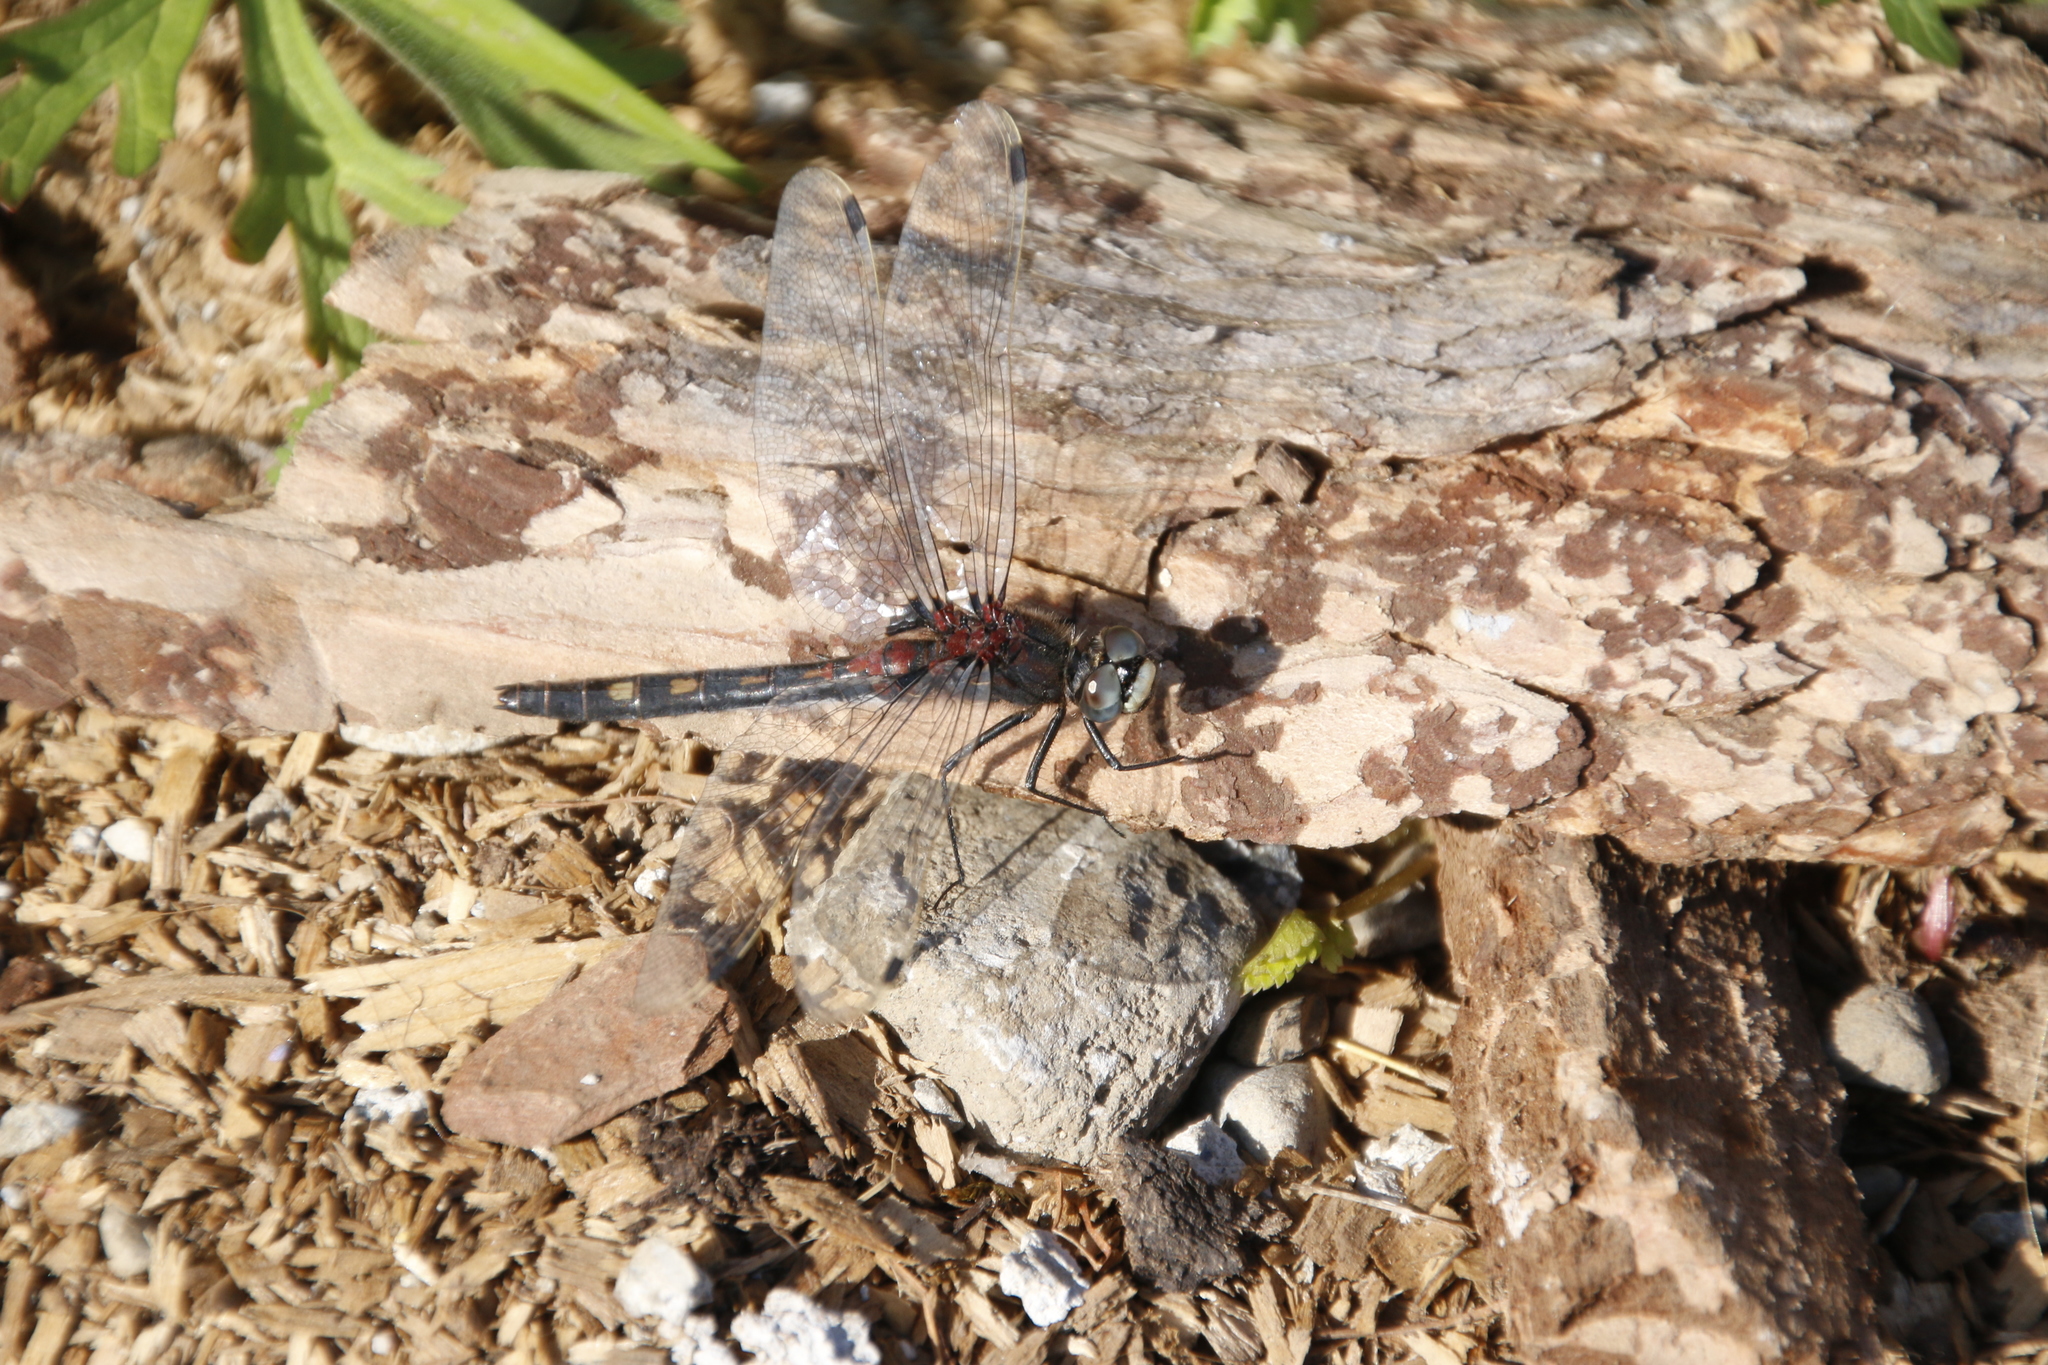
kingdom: Animalia
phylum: Arthropoda
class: Insecta
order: Odonata
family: Libellulidae
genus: Leucorrhinia
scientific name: Leucorrhinia orientalis
